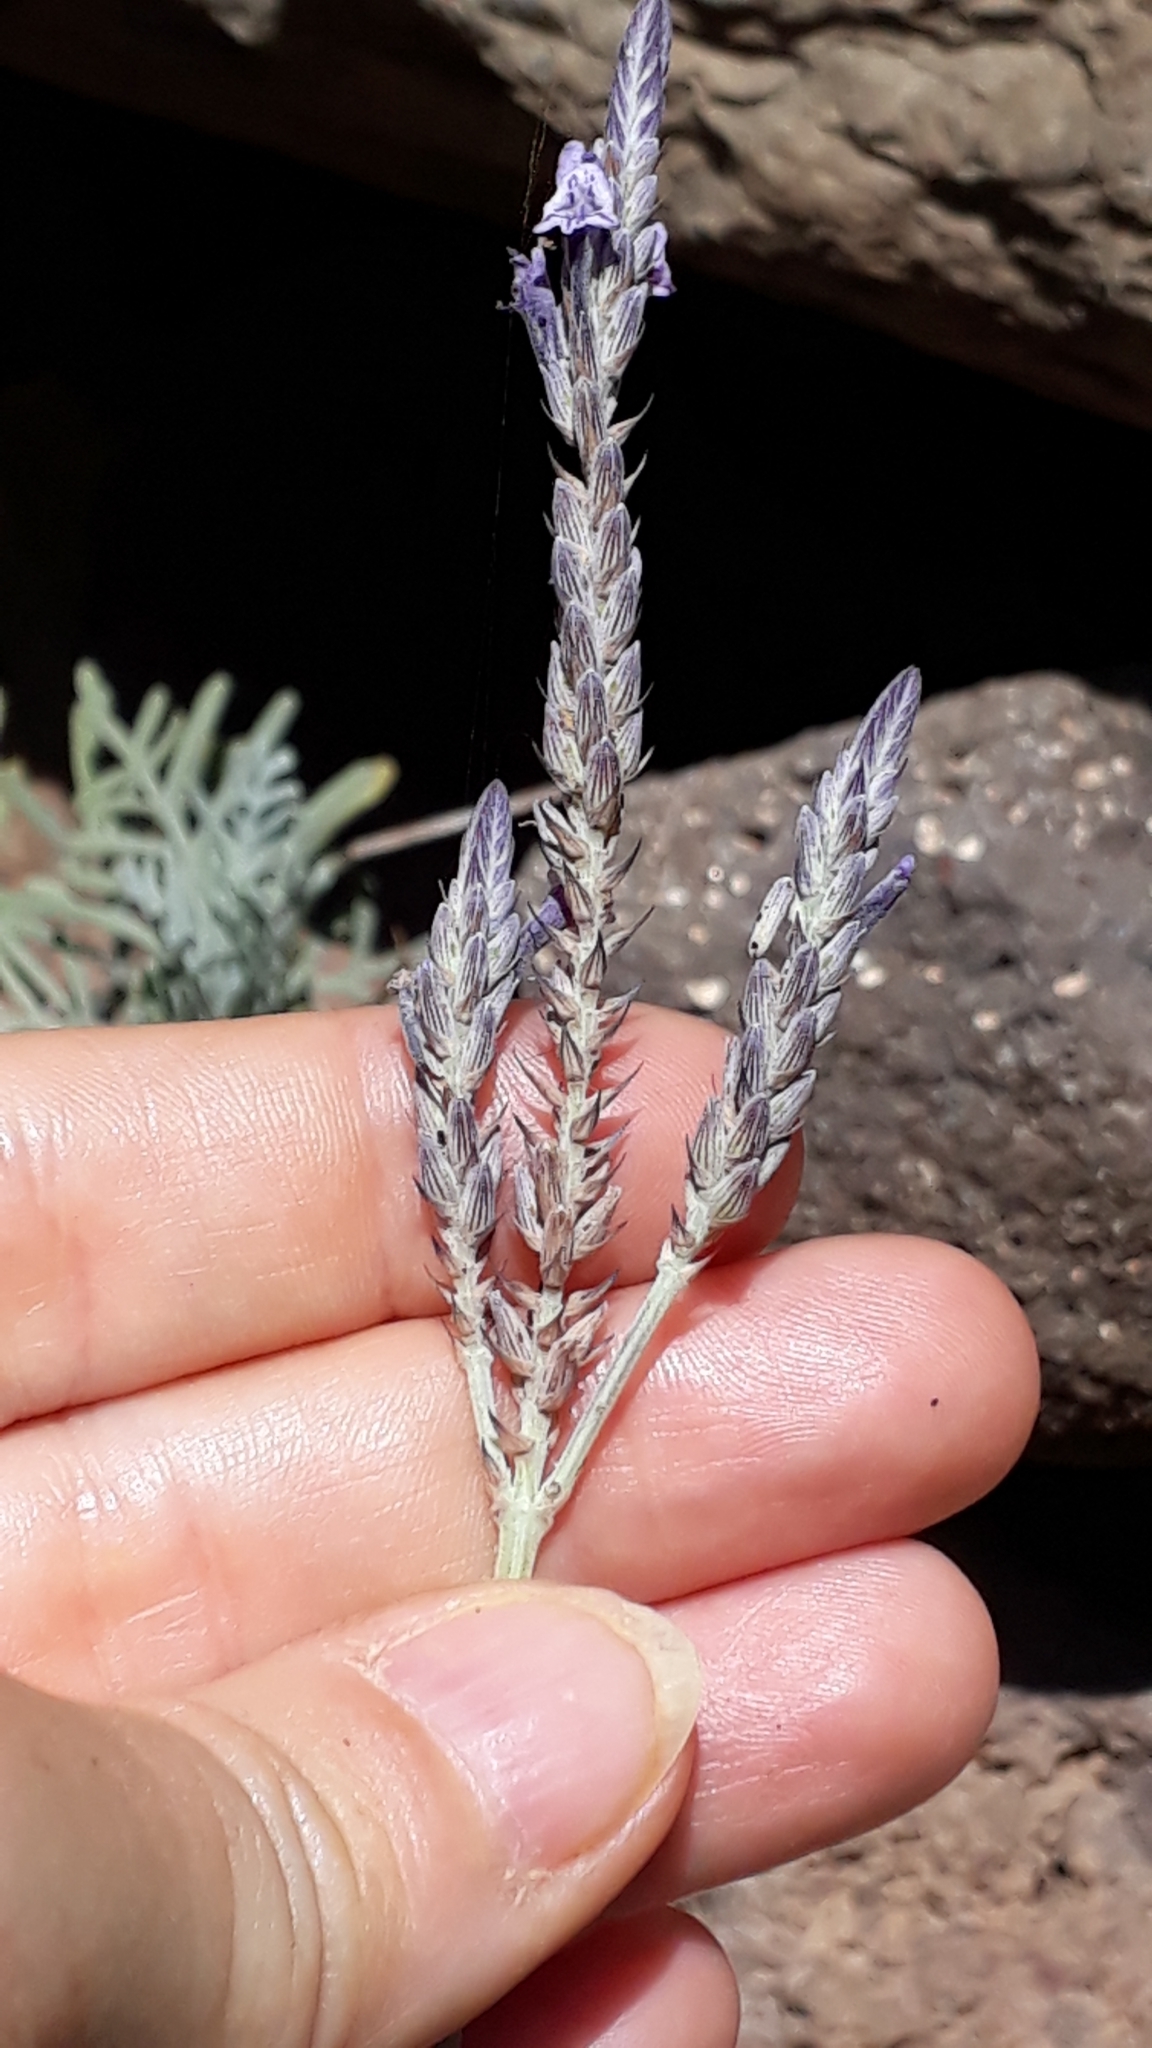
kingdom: Plantae
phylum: Tracheophyta
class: Magnoliopsida
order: Lamiales
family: Lamiaceae
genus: Lavandula
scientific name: Lavandula buchii
